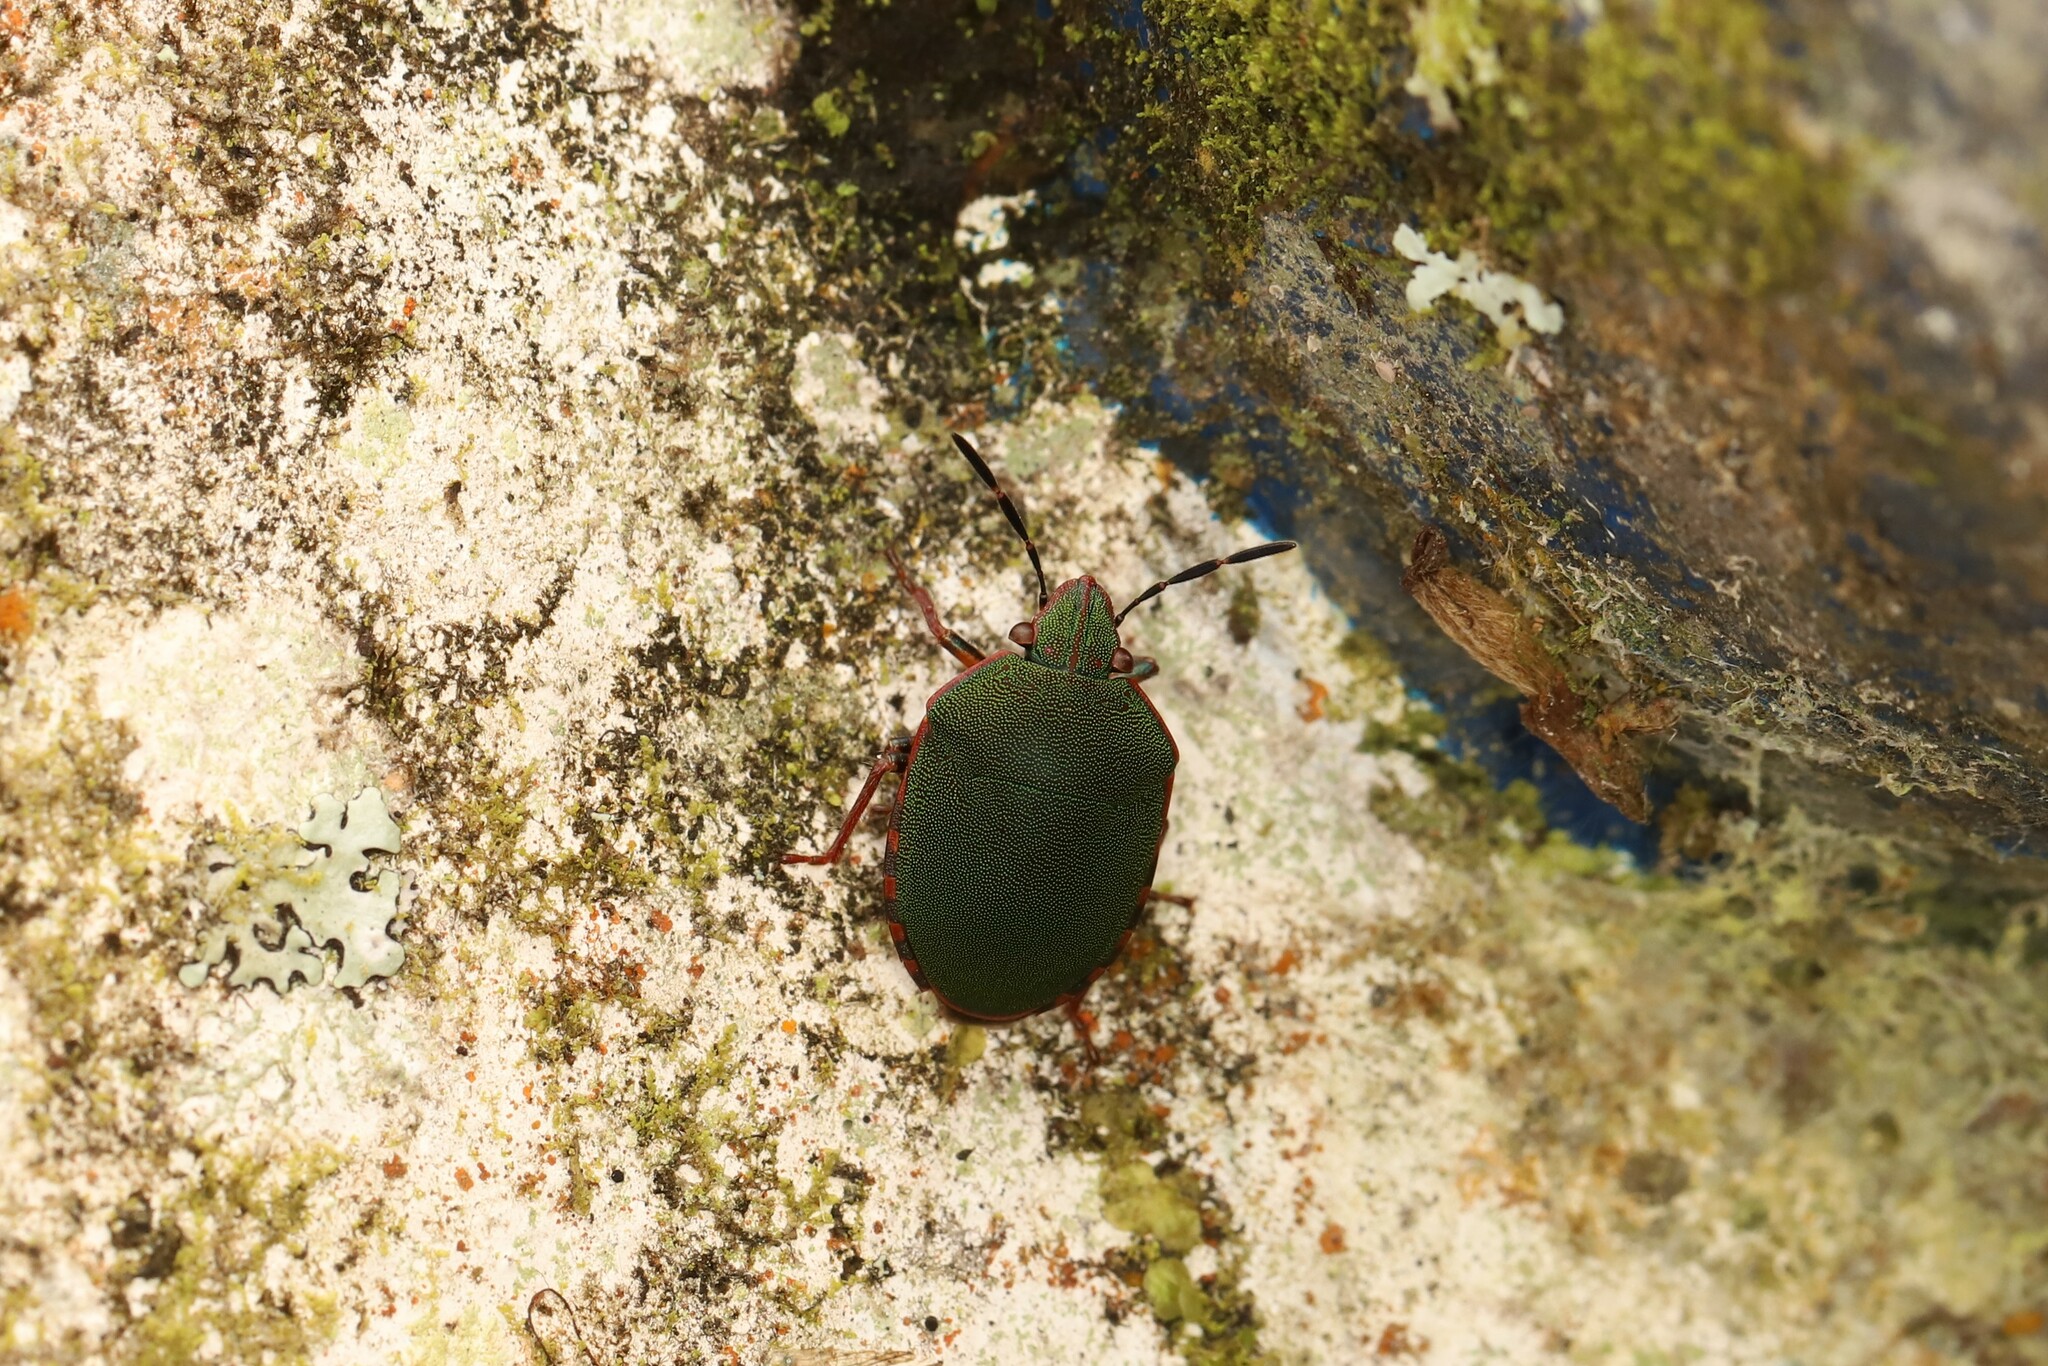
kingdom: Animalia
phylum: Arthropoda
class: Insecta
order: Hemiptera
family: Scutelleridae
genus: Polytes
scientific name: Polytes
